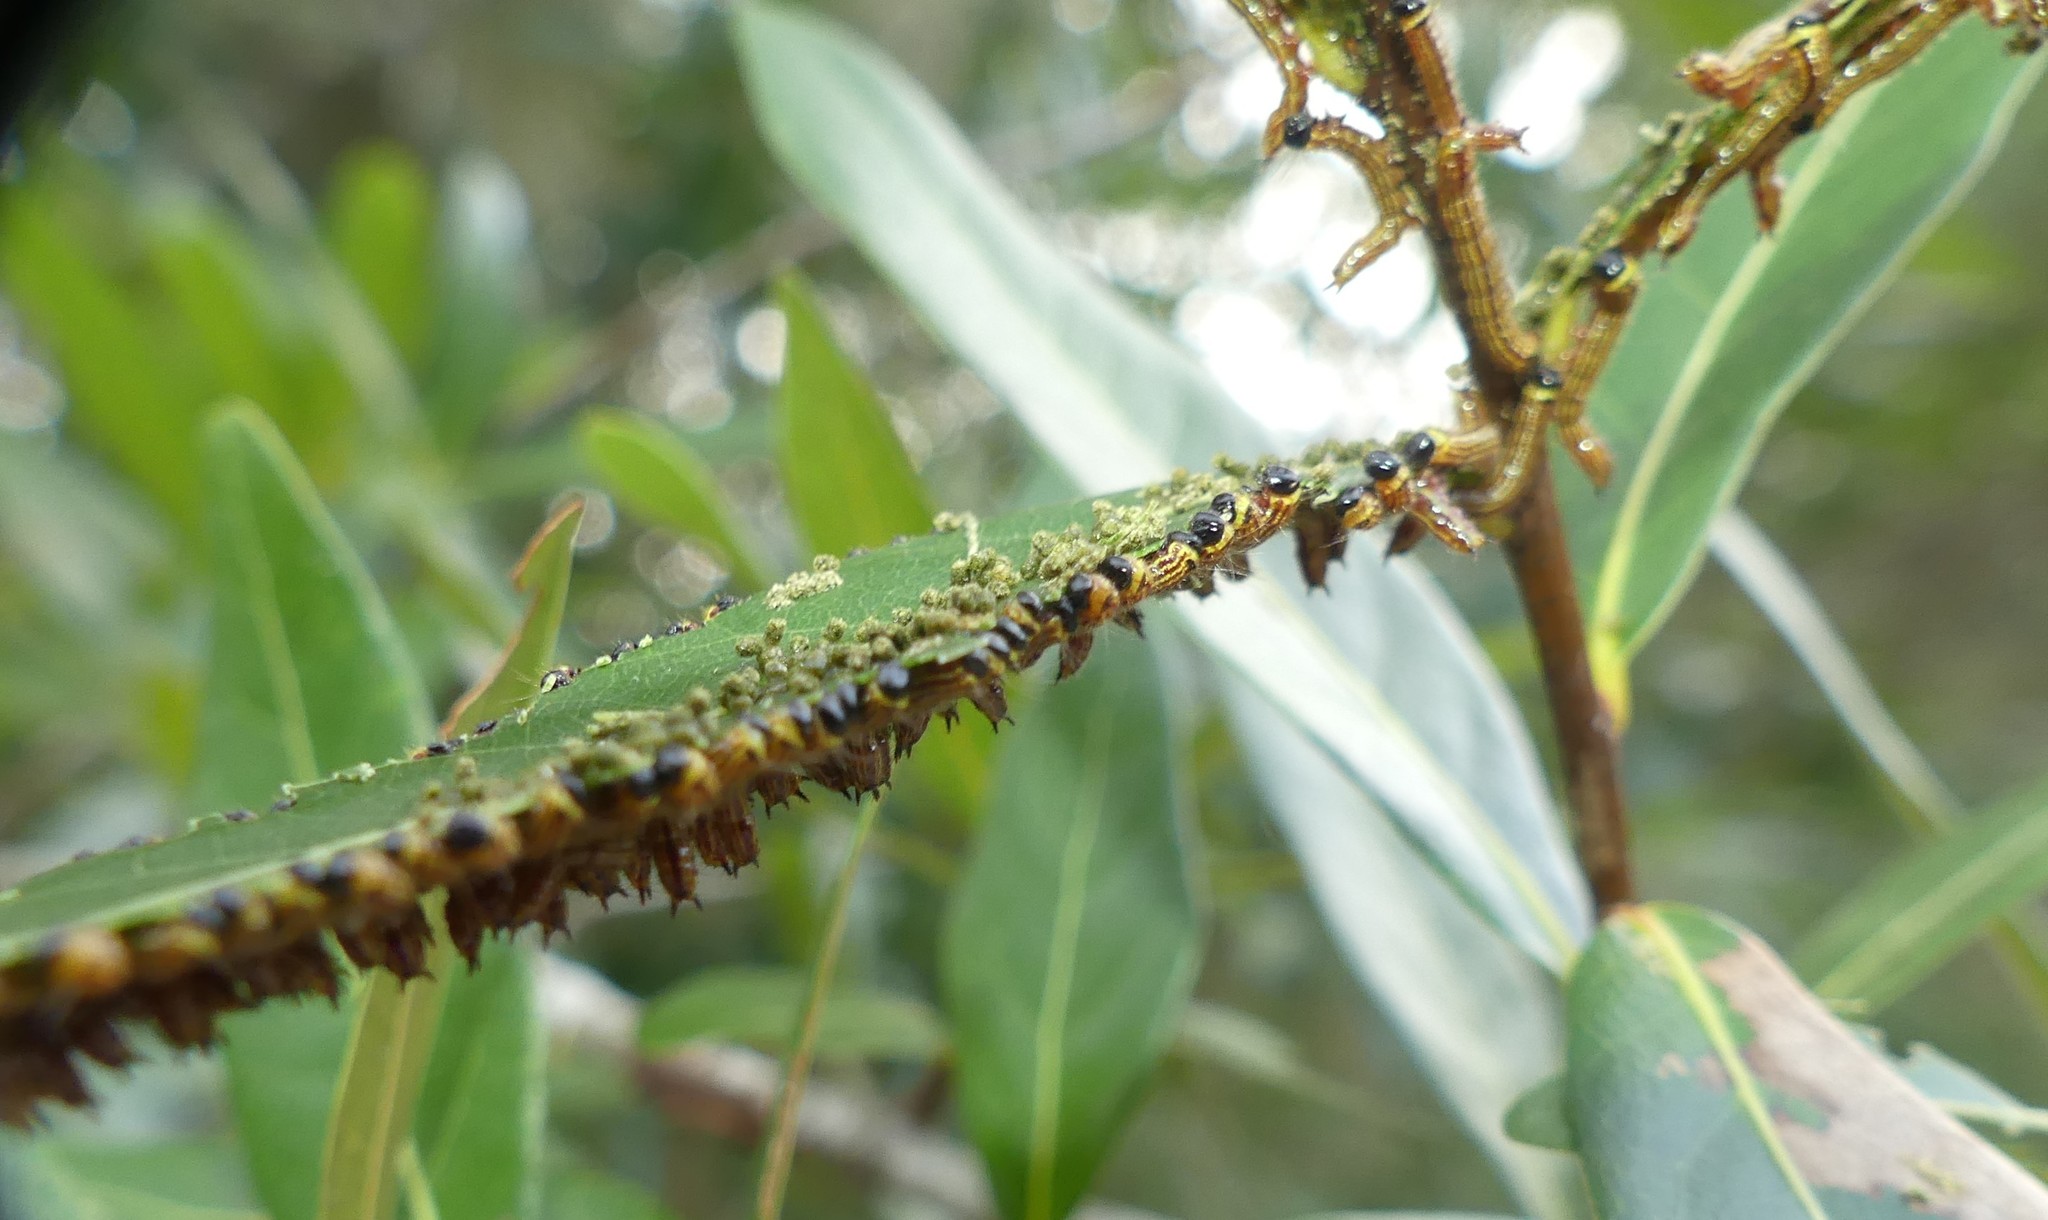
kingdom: Animalia
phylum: Arthropoda
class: Insecta
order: Lepidoptera
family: Notodontidae
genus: Datana
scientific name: Datana ministra
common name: Yellow-necked caterpillar moth
